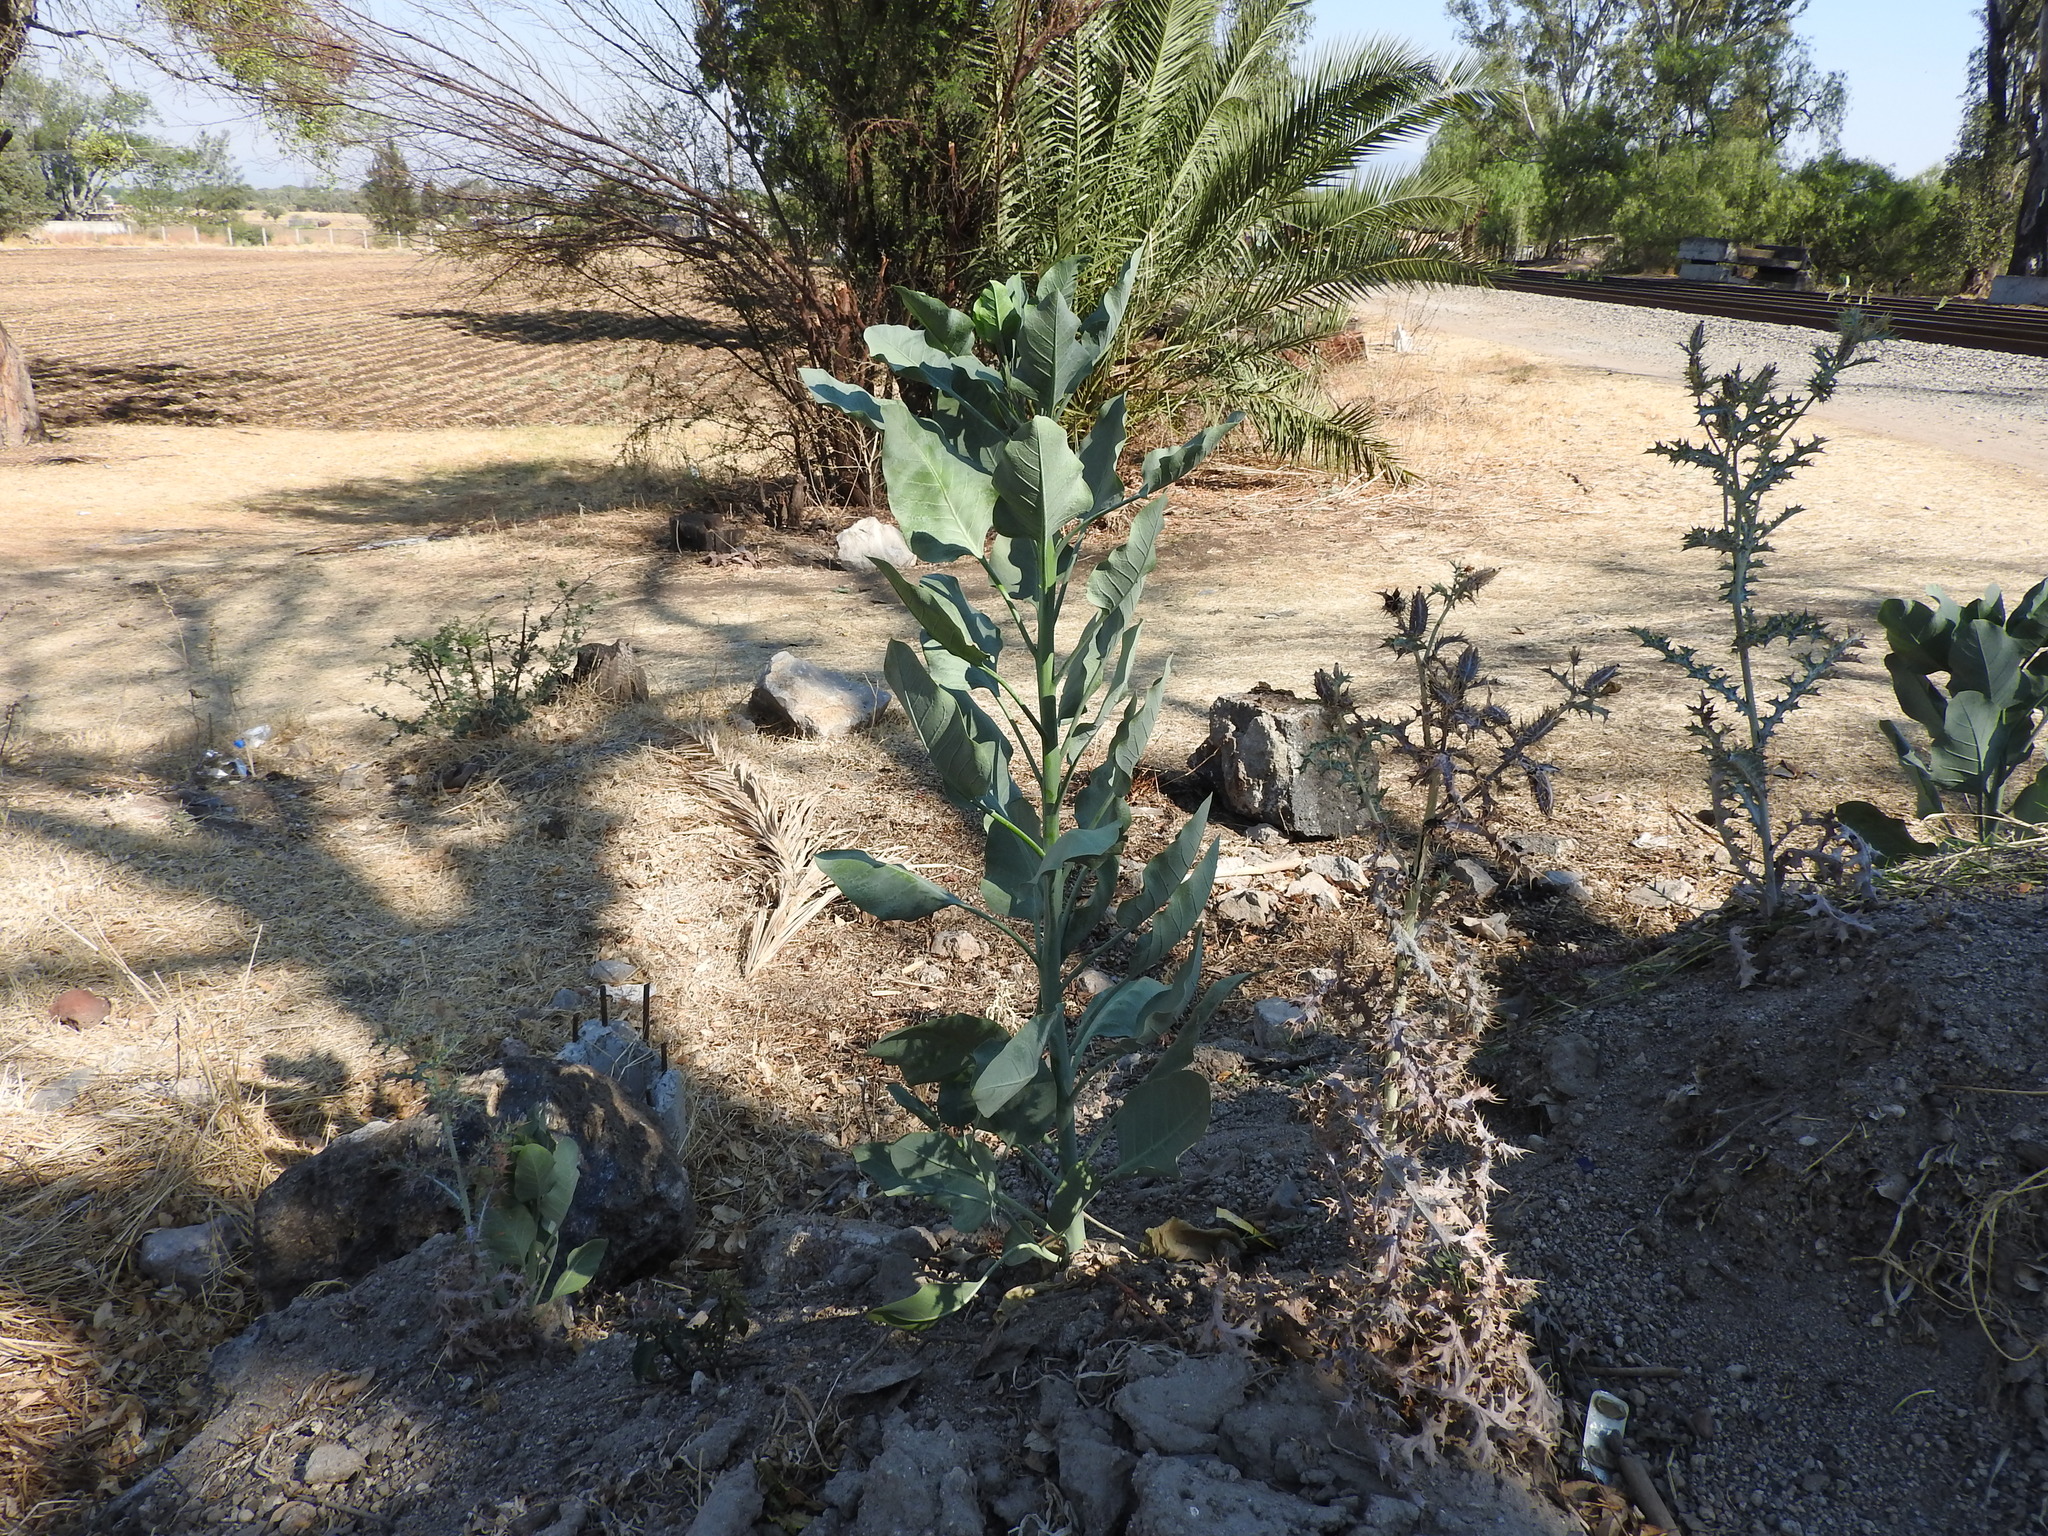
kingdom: Plantae
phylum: Tracheophyta
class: Magnoliopsida
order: Solanales
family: Solanaceae
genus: Nicotiana
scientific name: Nicotiana glauca
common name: Tree tobacco
